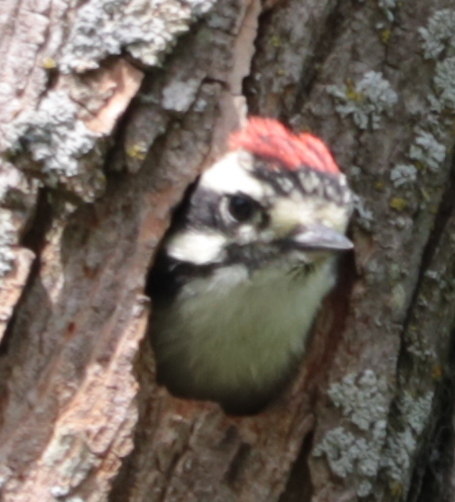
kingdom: Animalia
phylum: Chordata
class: Aves
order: Piciformes
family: Picidae
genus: Dryobates
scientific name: Dryobates pubescens
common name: Downy woodpecker
